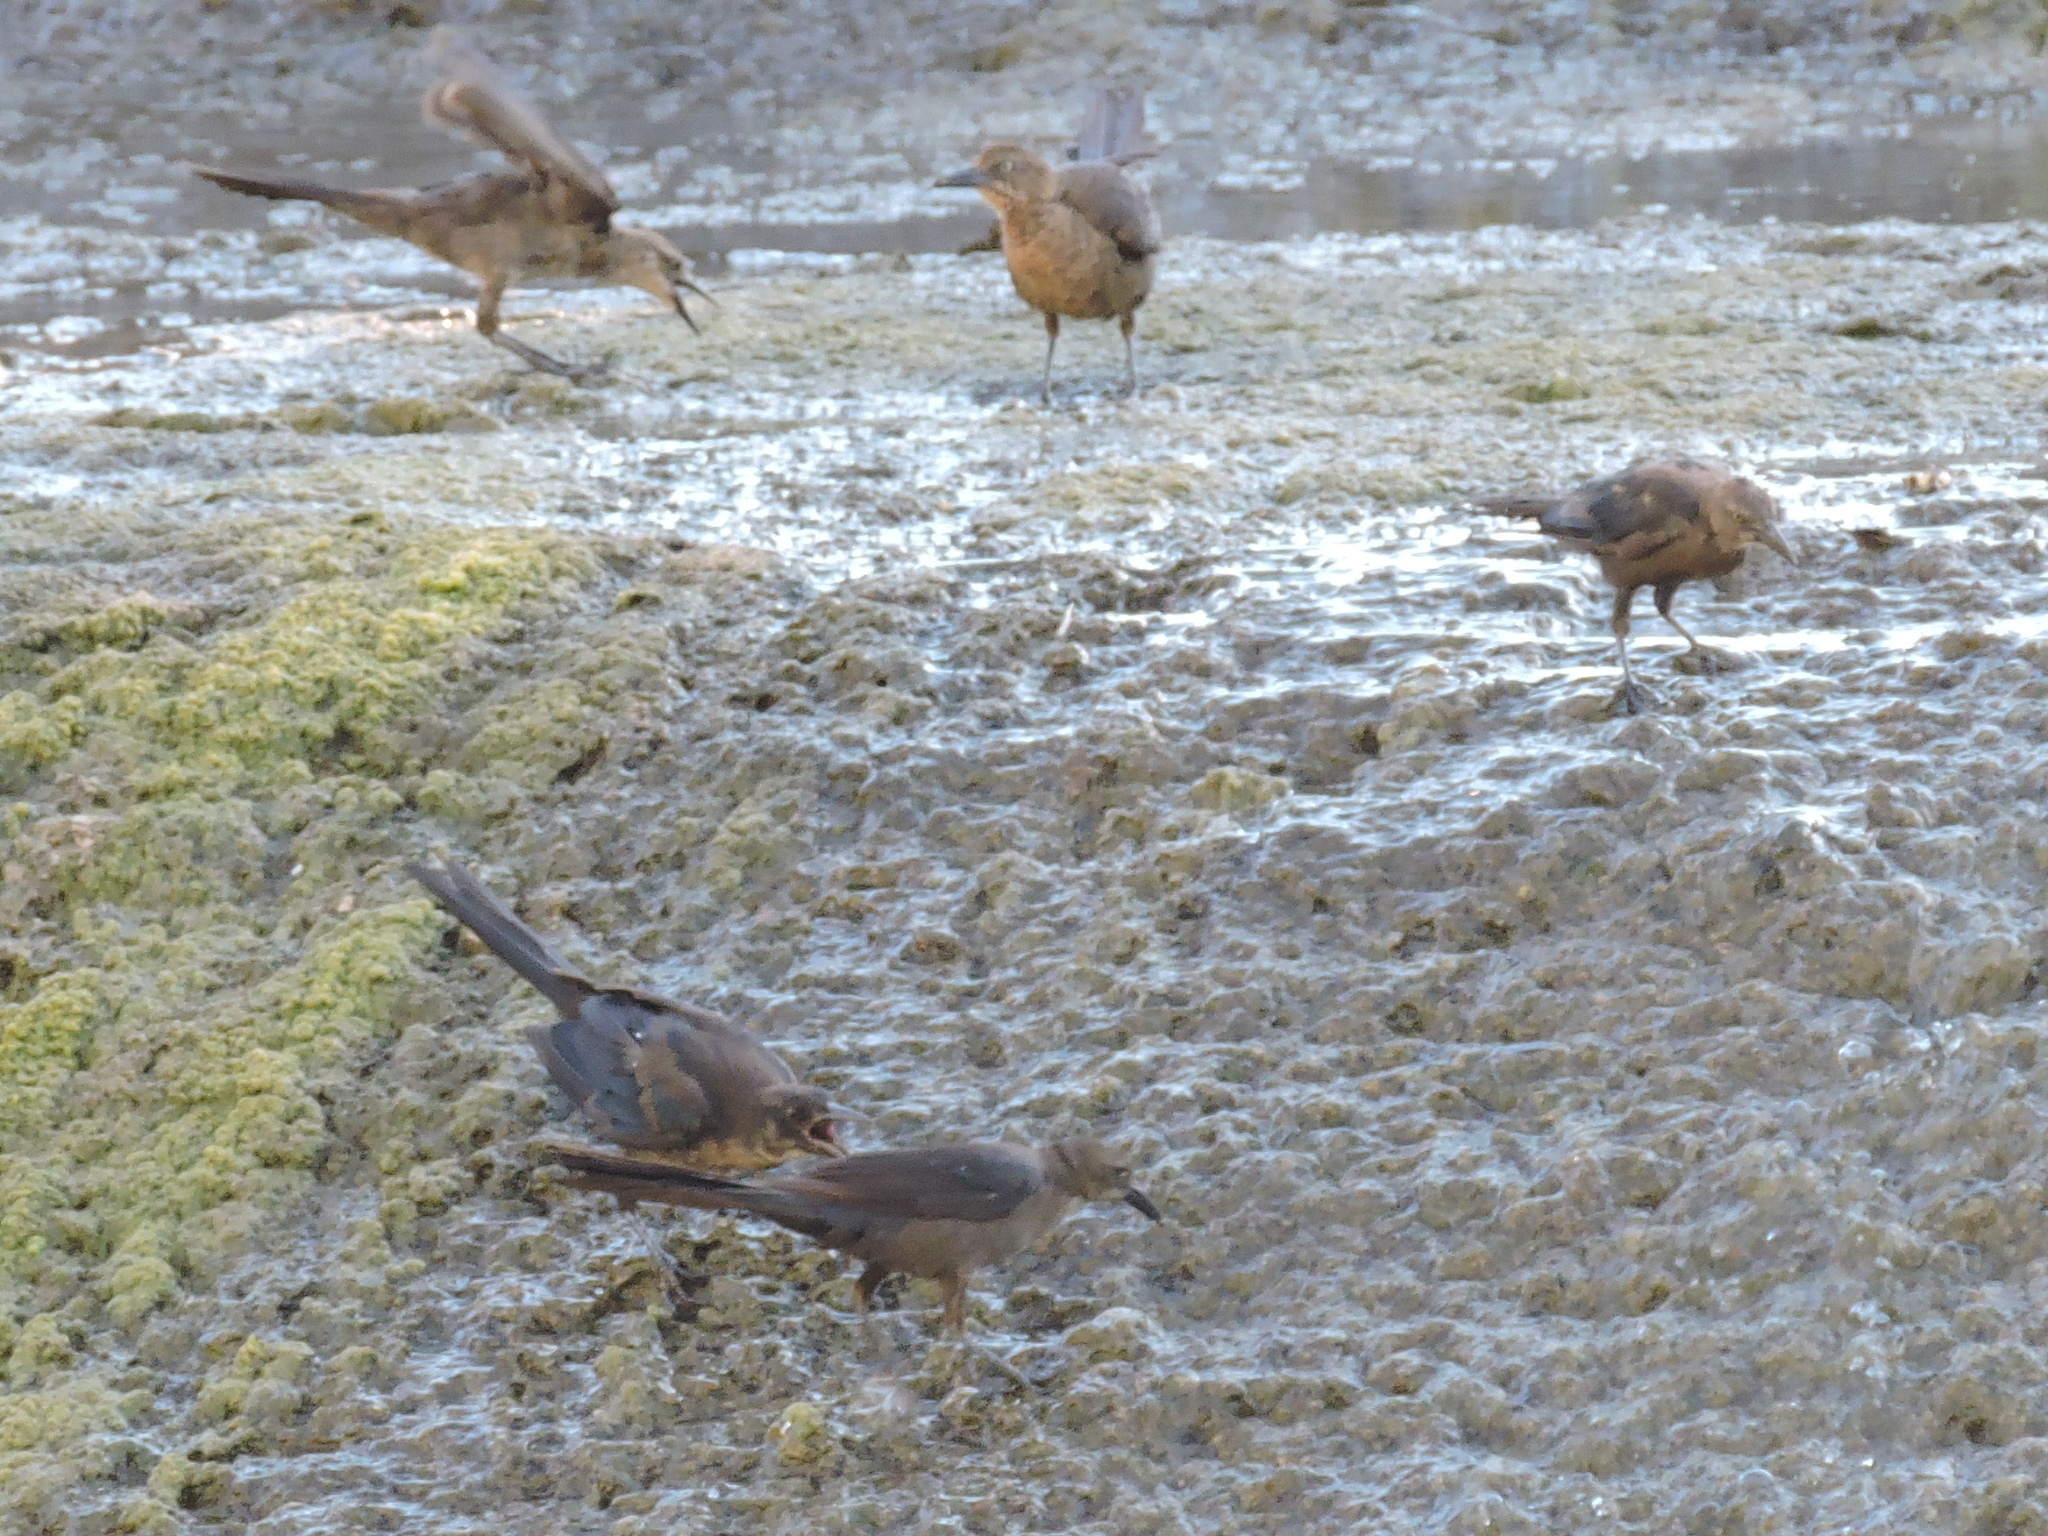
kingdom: Animalia
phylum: Chordata
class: Aves
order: Passeriformes
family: Icteridae
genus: Quiscalus
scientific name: Quiscalus mexicanus
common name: Great-tailed grackle
